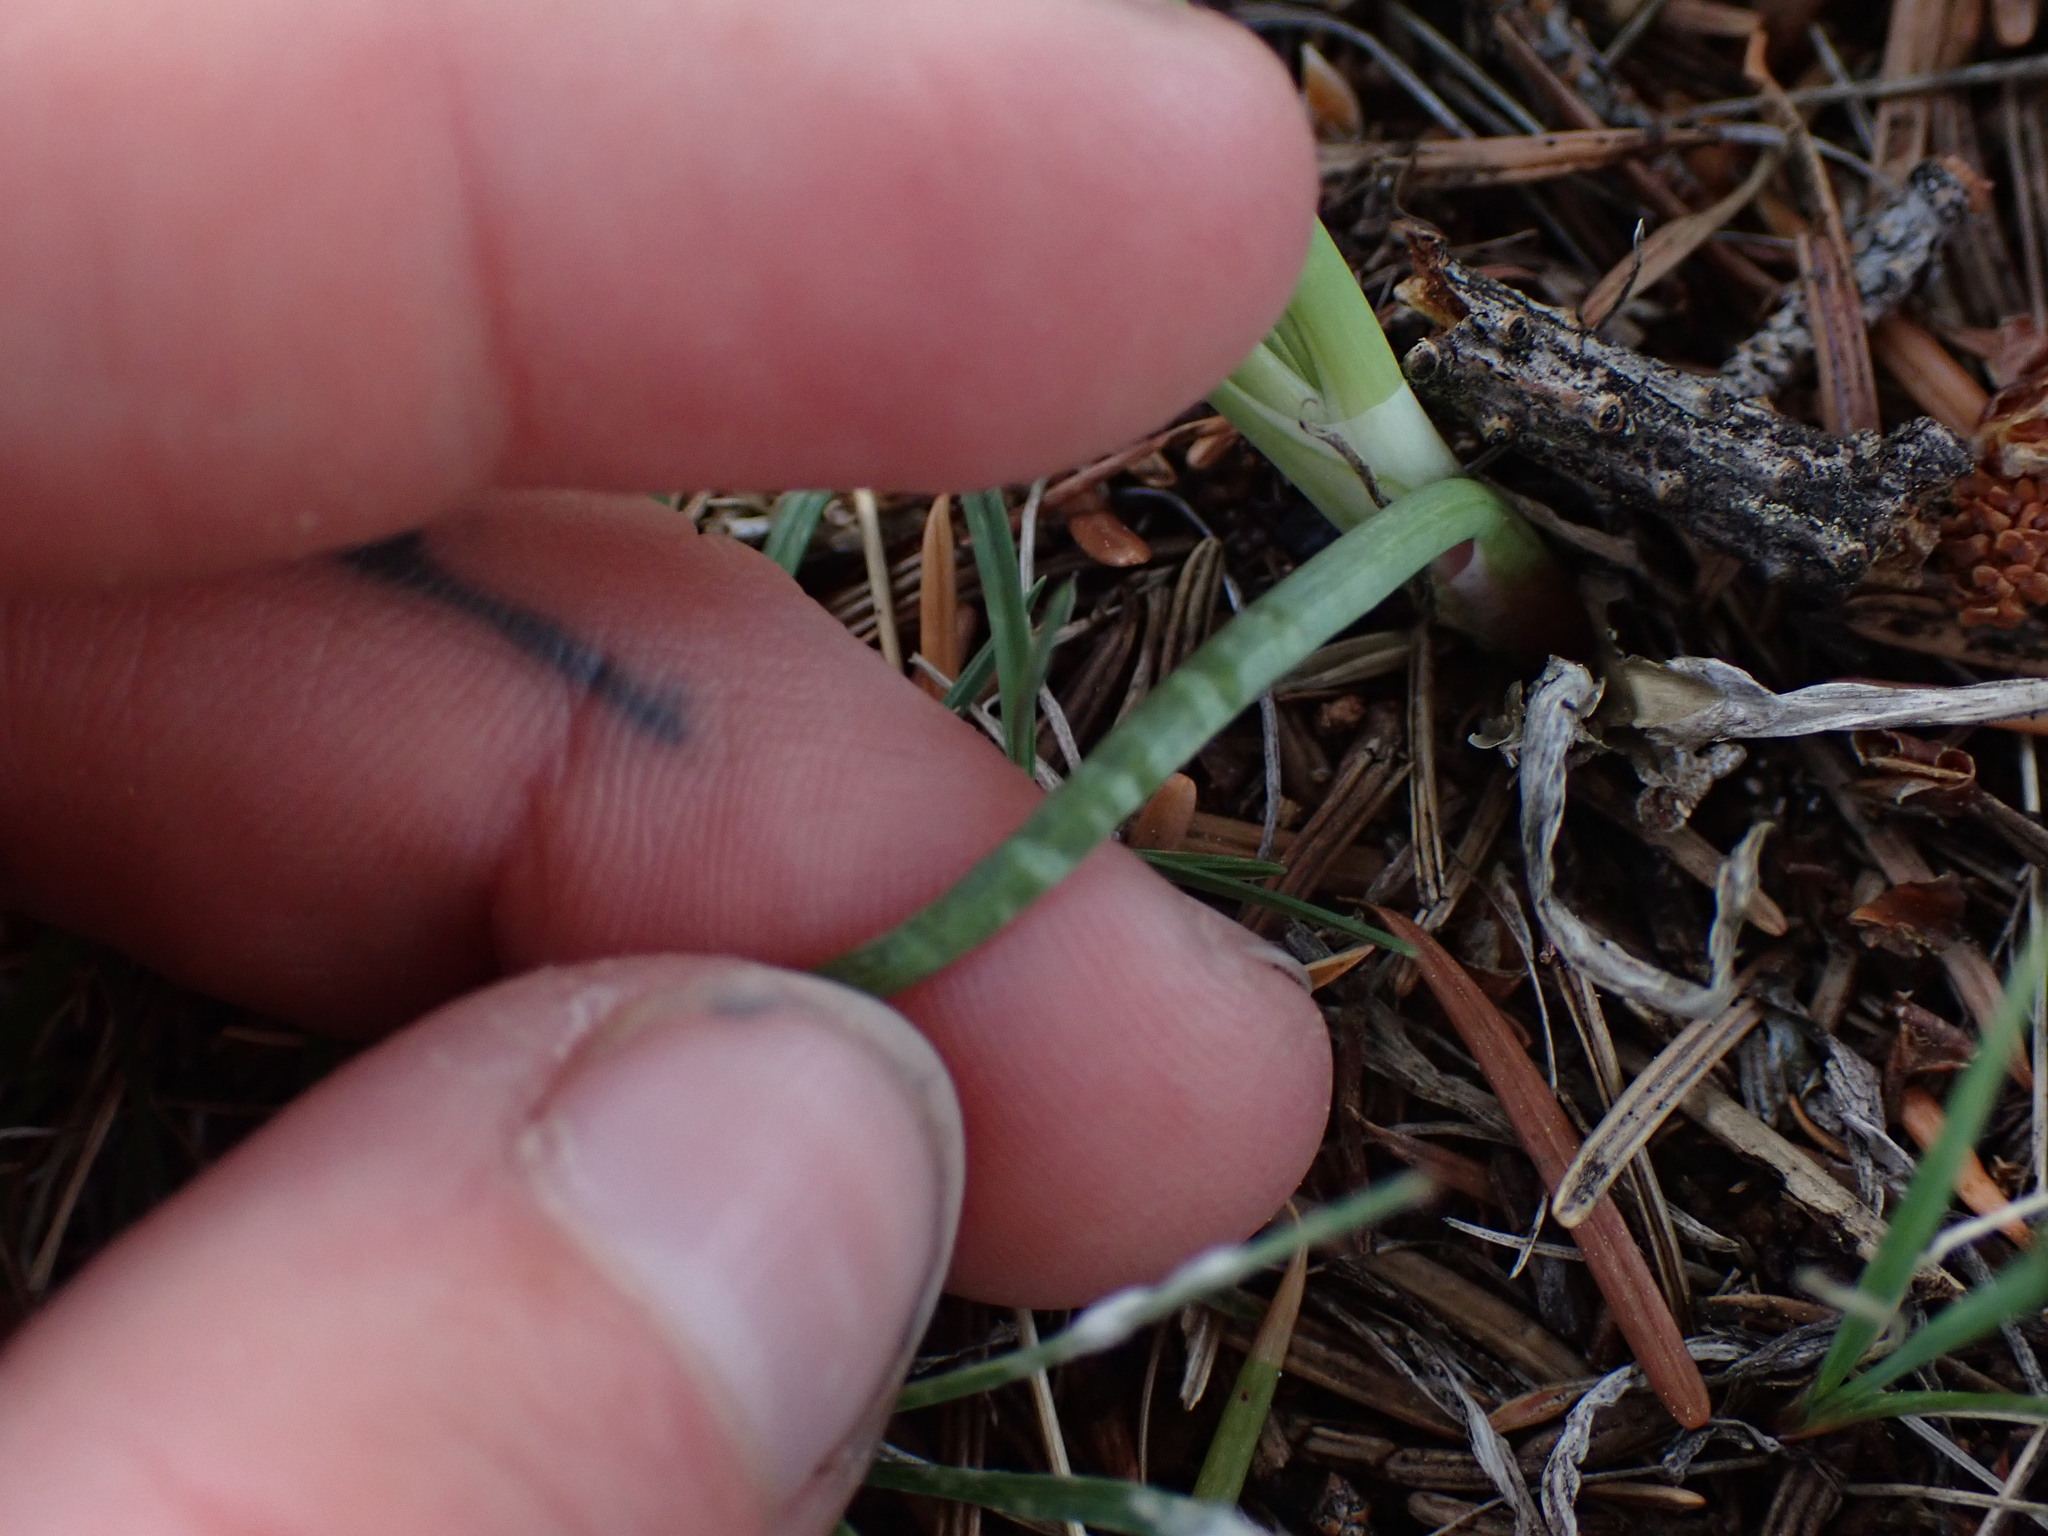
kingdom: Plantae
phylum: Tracheophyta
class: Liliopsida
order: Asparagales
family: Amaryllidaceae
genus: Allium
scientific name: Allium cernuum
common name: Nodding onion
